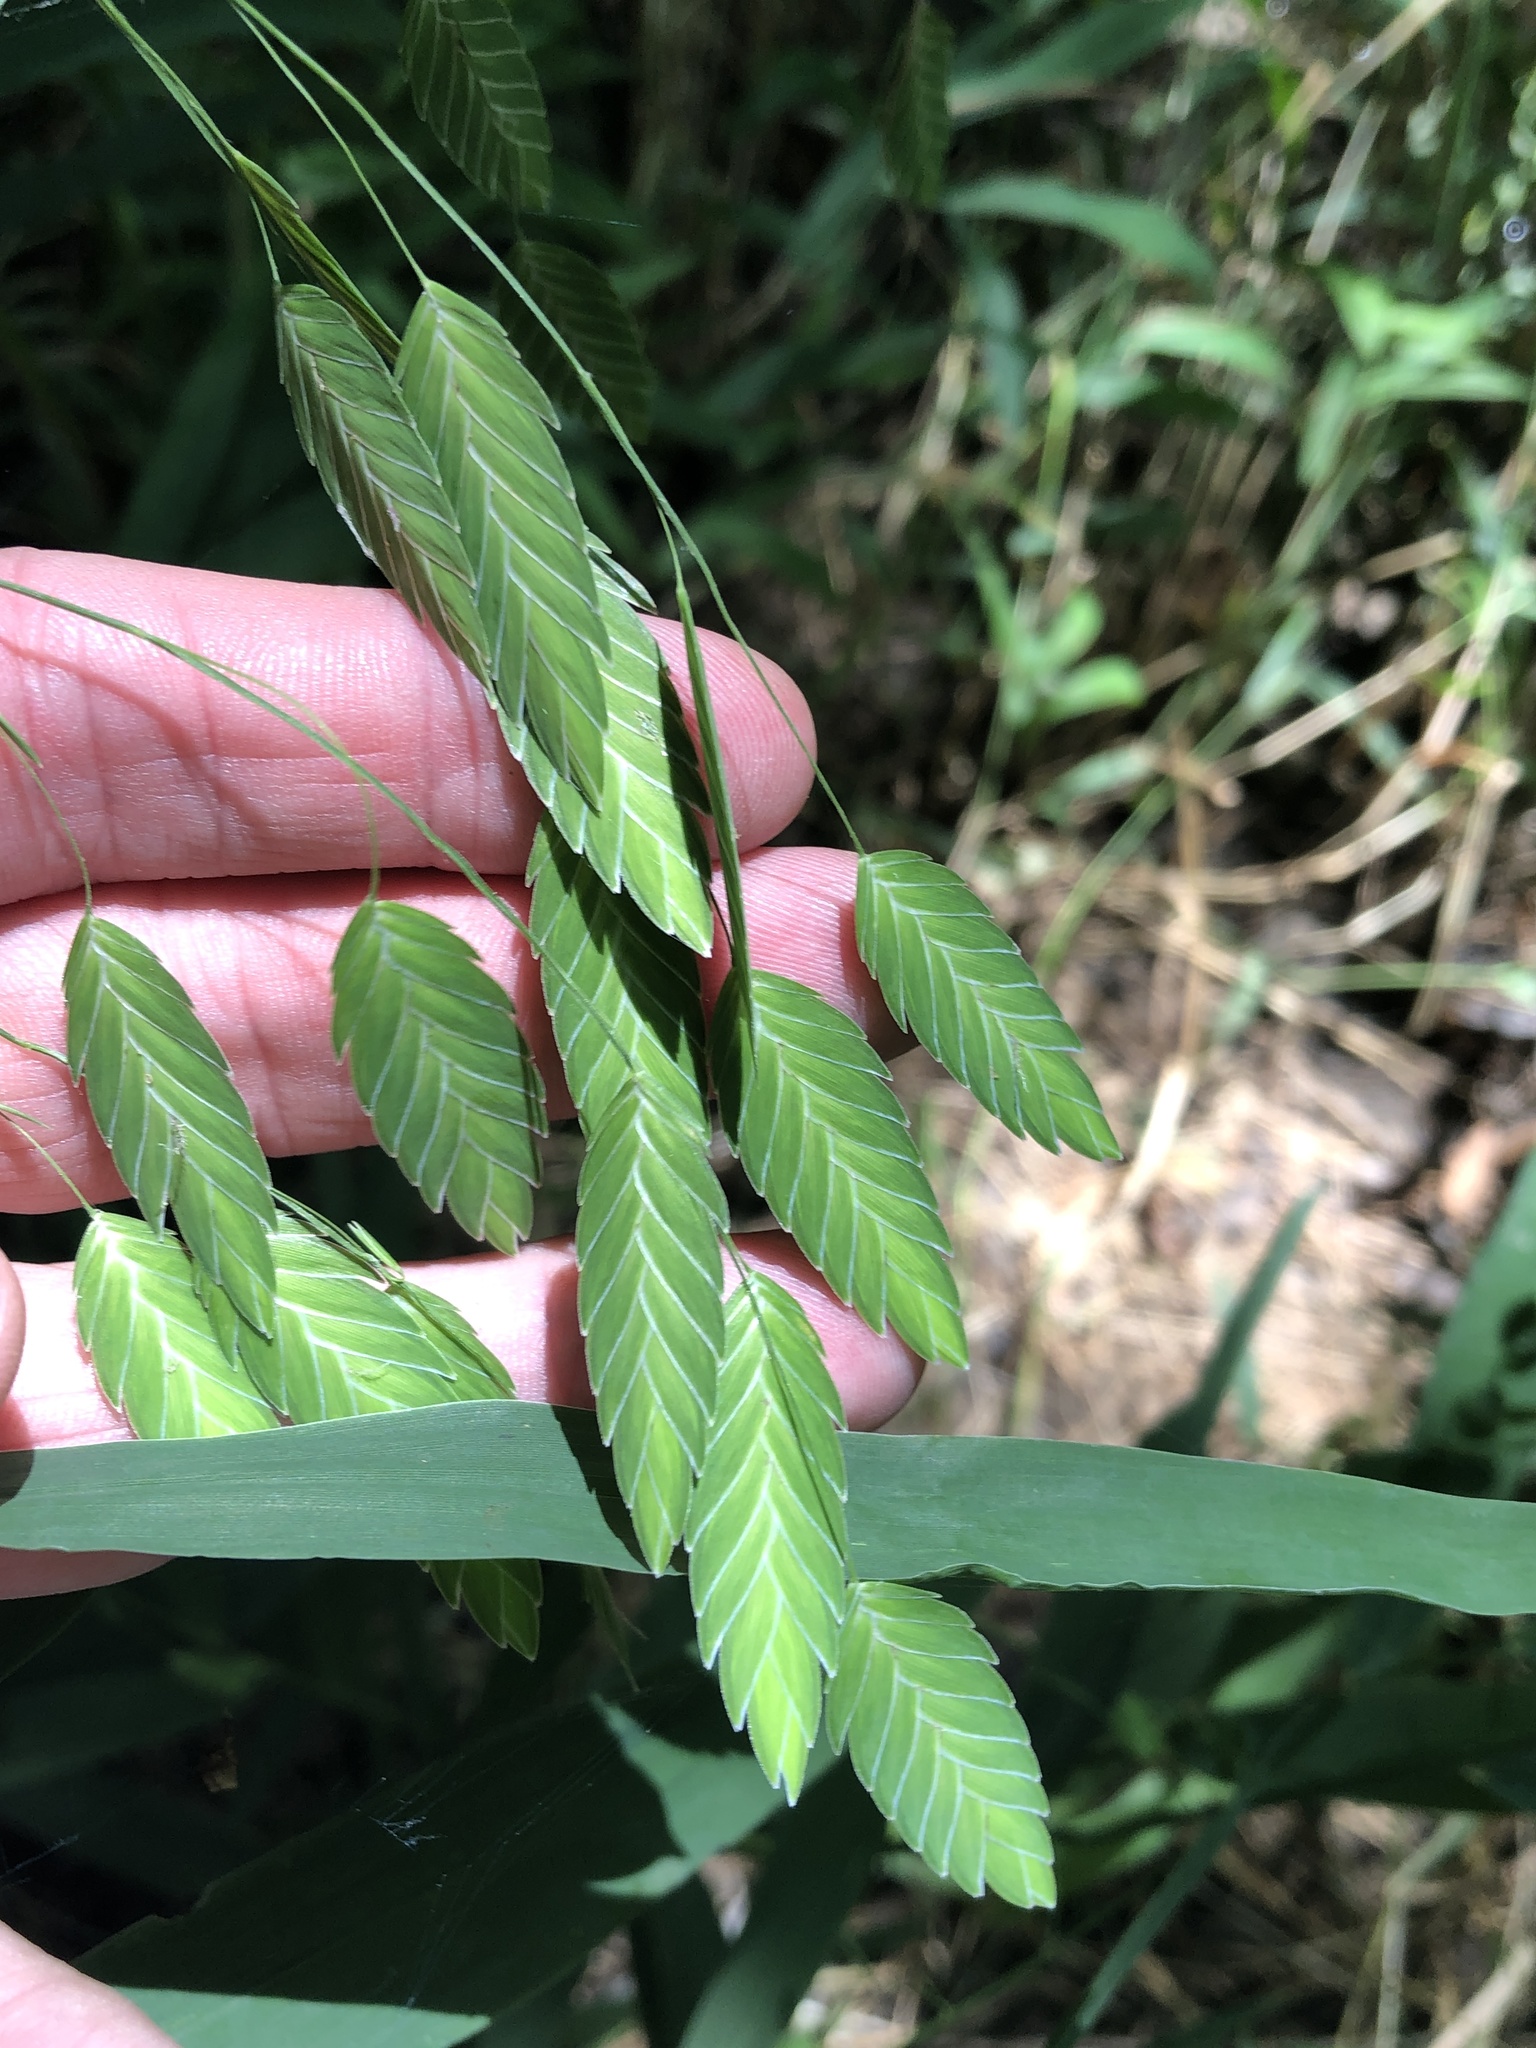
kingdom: Plantae
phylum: Tracheophyta
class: Liliopsida
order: Poales
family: Poaceae
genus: Chasmanthium
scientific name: Chasmanthium latifolium
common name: Broad-leaved chasmanthium
